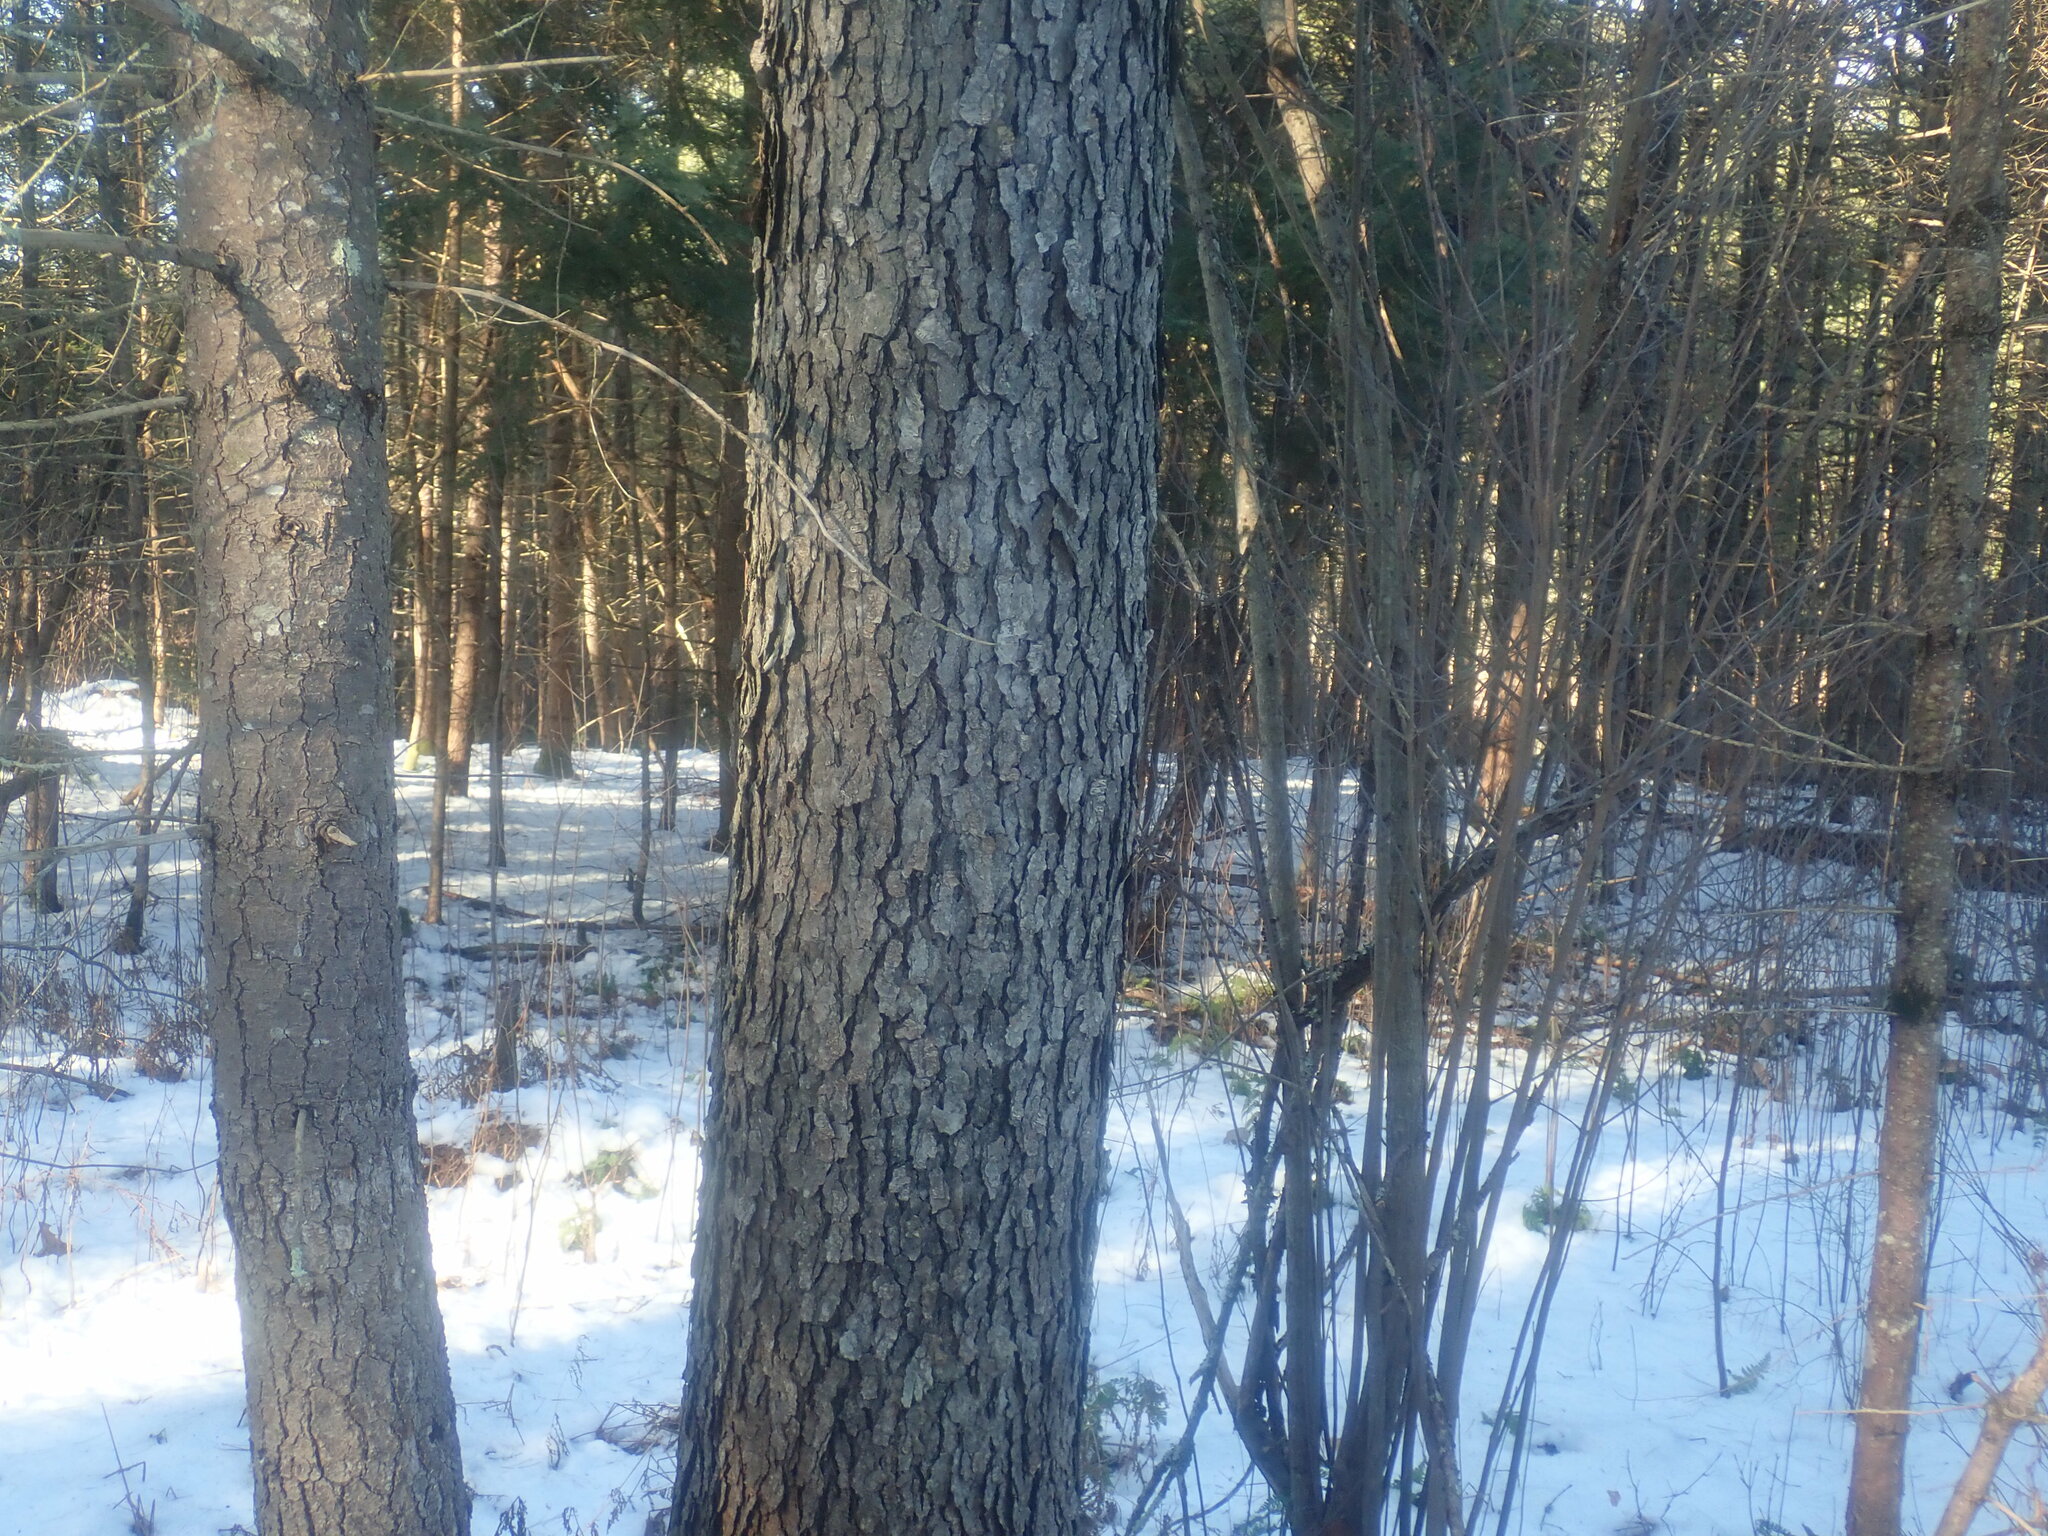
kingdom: Plantae
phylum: Tracheophyta
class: Magnoliopsida
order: Rosales
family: Rosaceae
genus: Prunus
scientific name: Prunus serotina
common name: Black cherry
